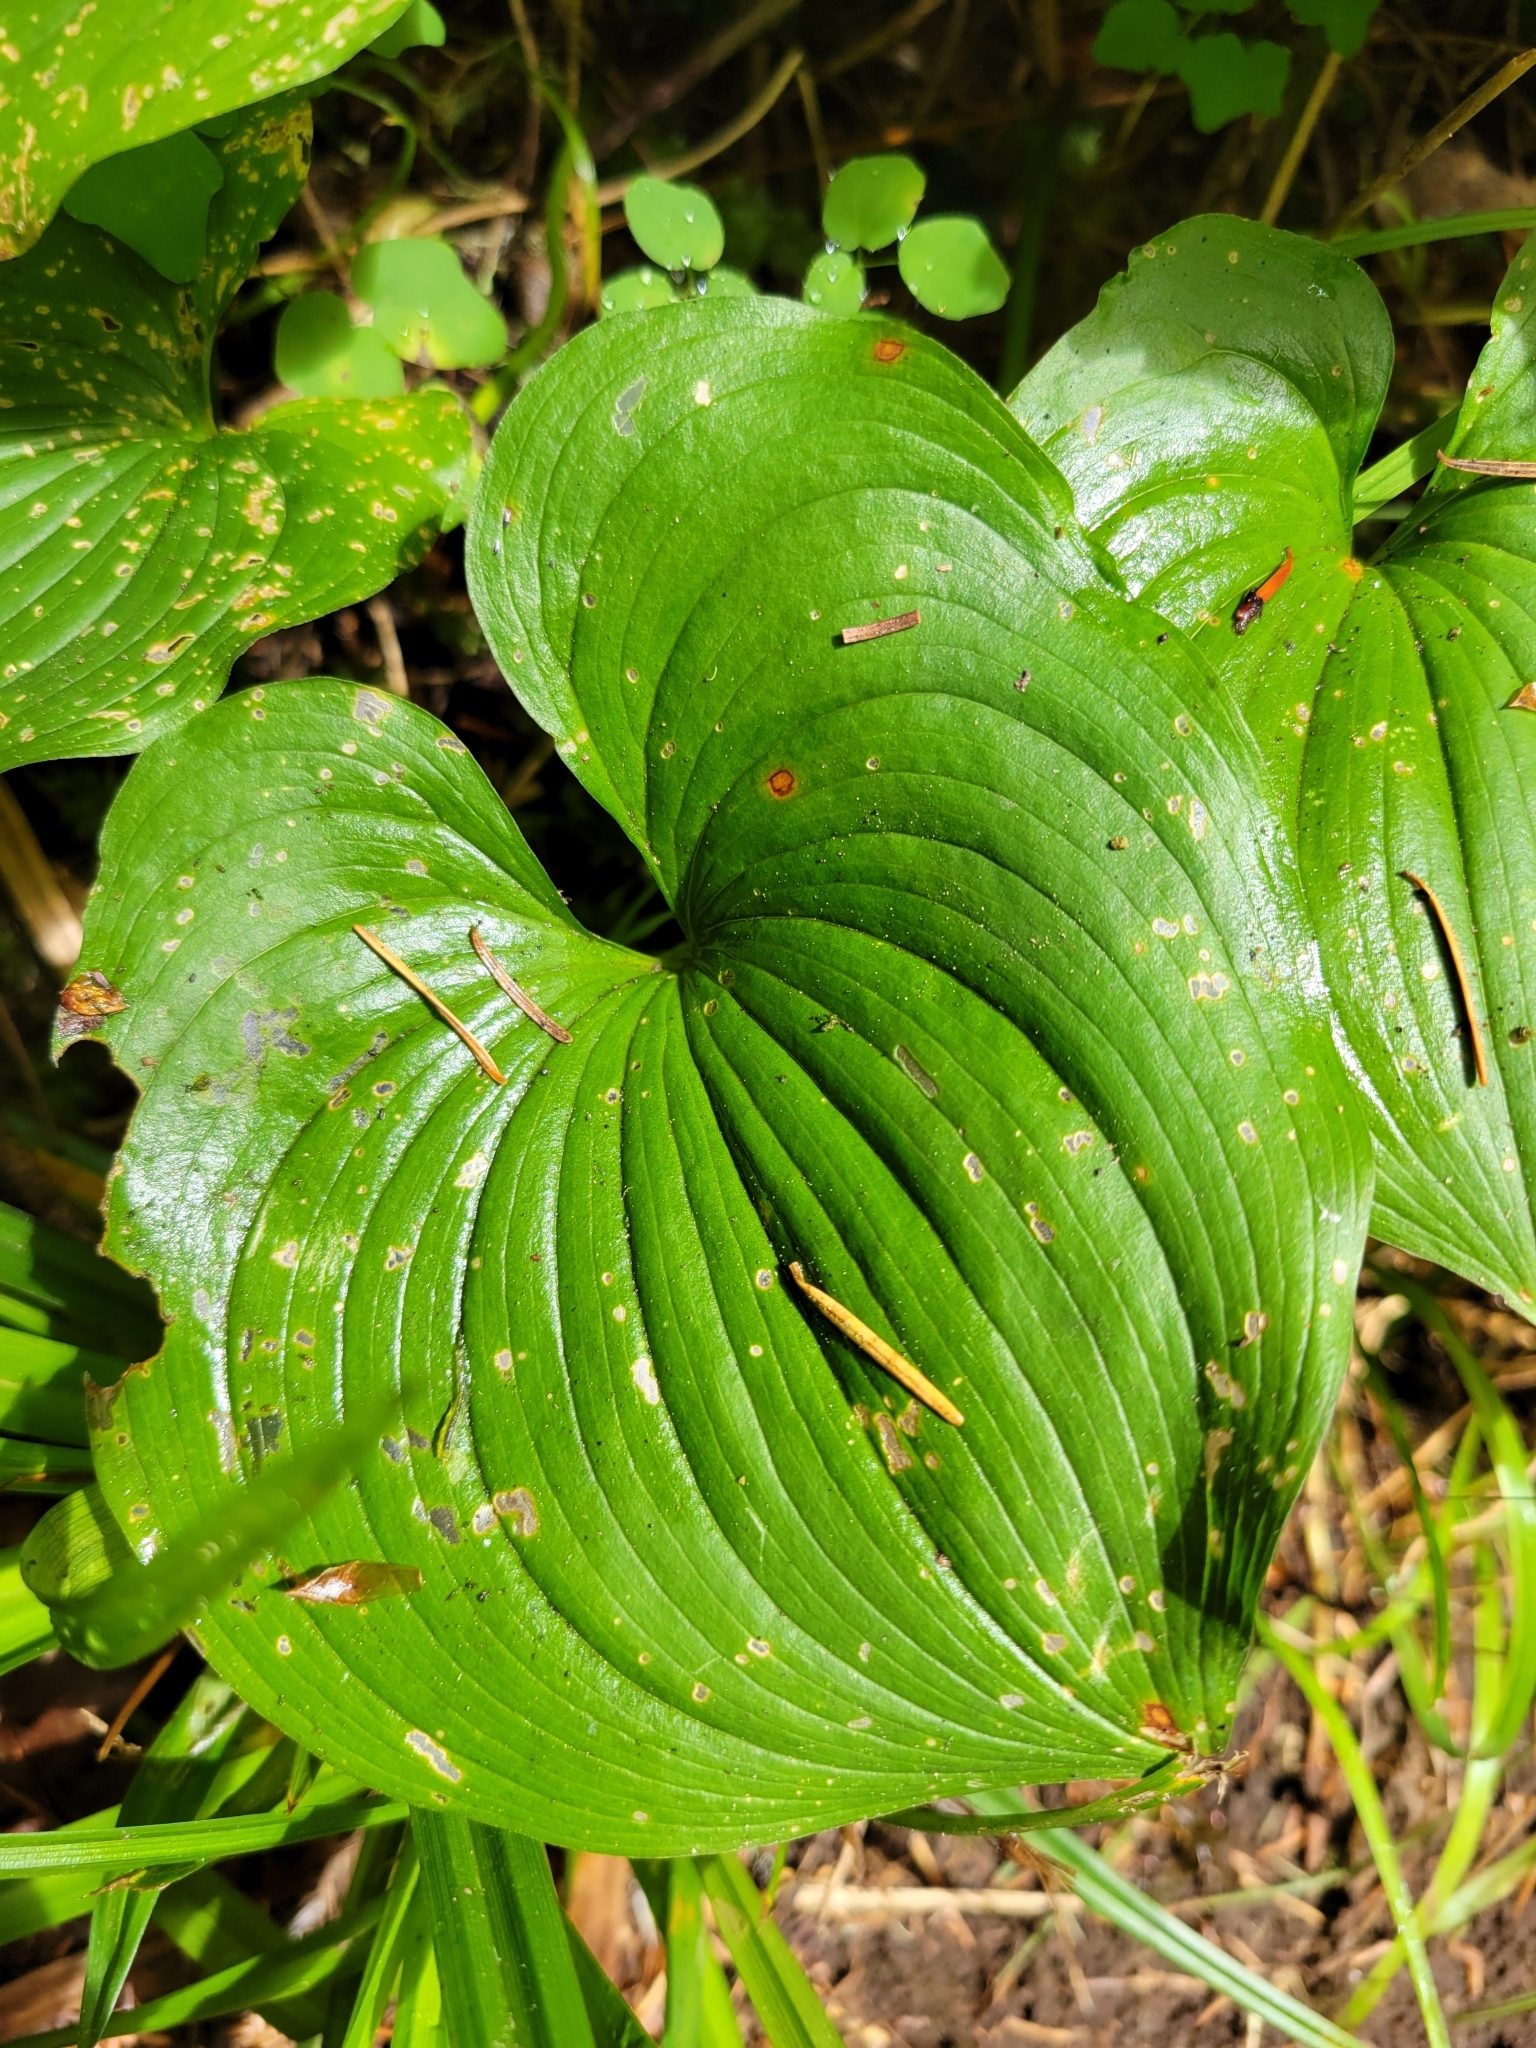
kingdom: Plantae
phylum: Tracheophyta
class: Liliopsida
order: Asparagales
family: Asparagaceae
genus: Maianthemum
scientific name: Maianthemum dilatatum
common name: False lily-of-the-valley
